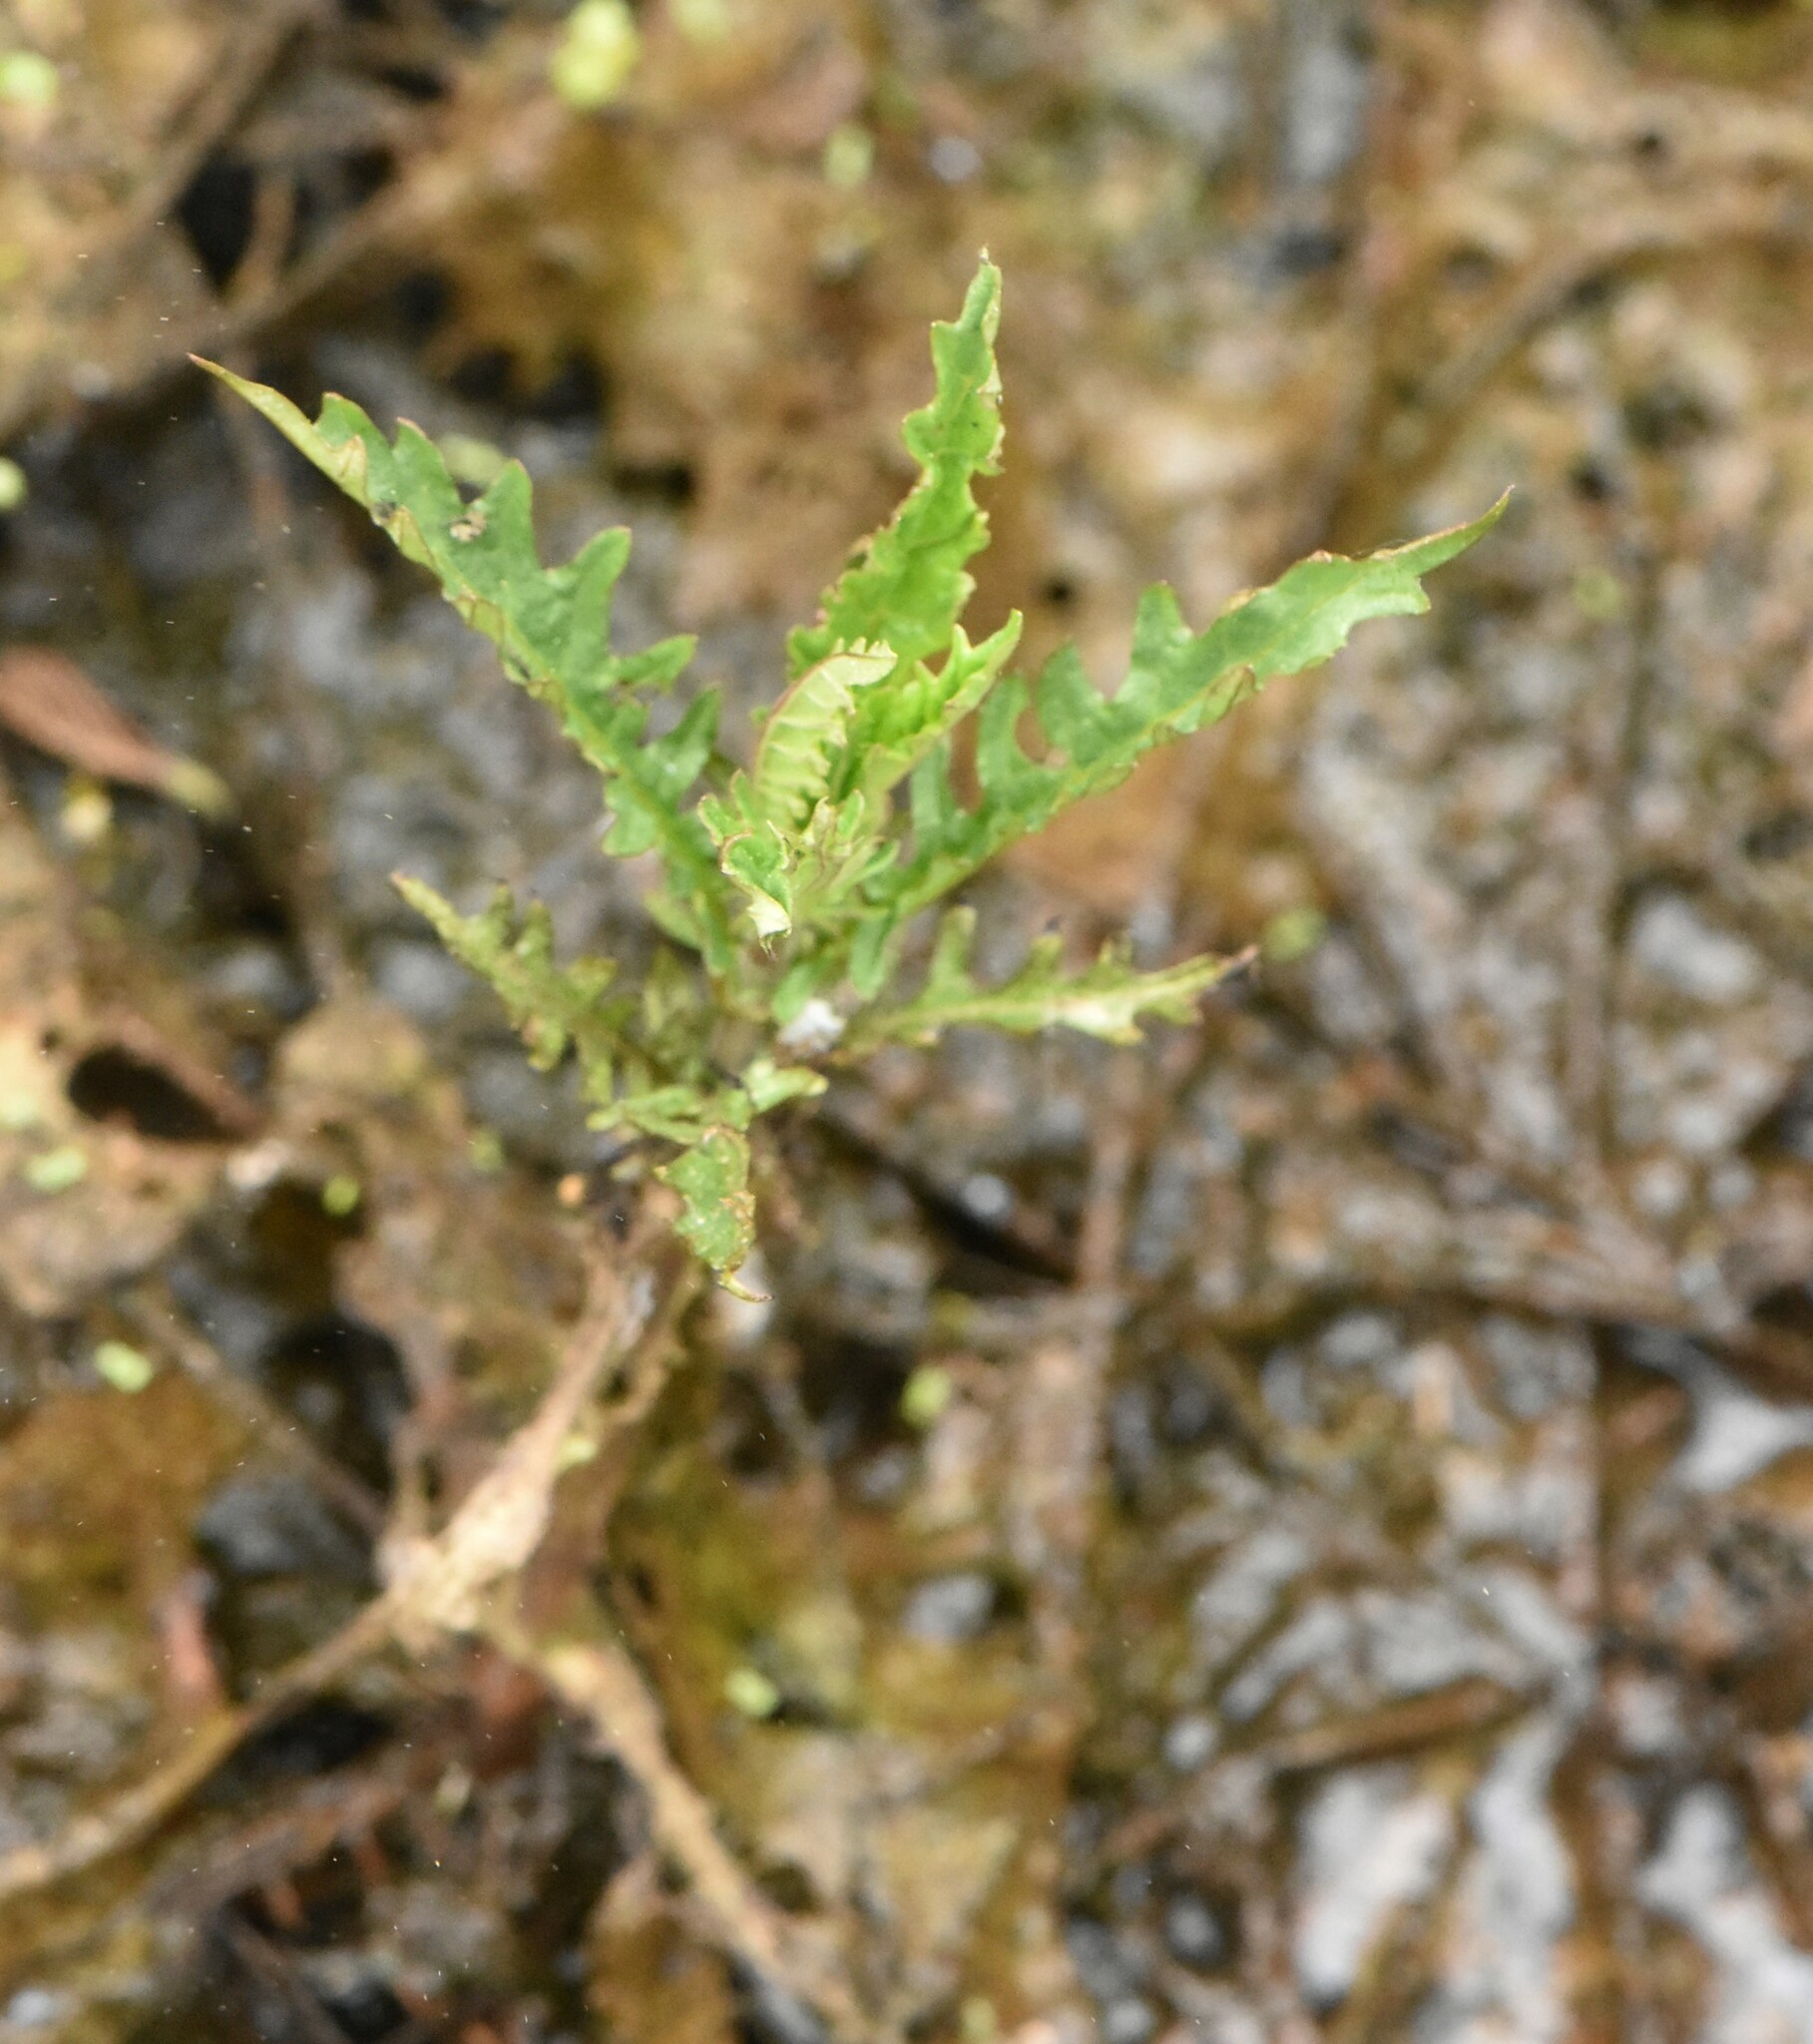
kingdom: Plantae
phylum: Tracheophyta
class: Magnoliopsida
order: Lamiales
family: Lamiaceae
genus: Lycopus
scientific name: Lycopus europaeus
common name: European bugleweed
